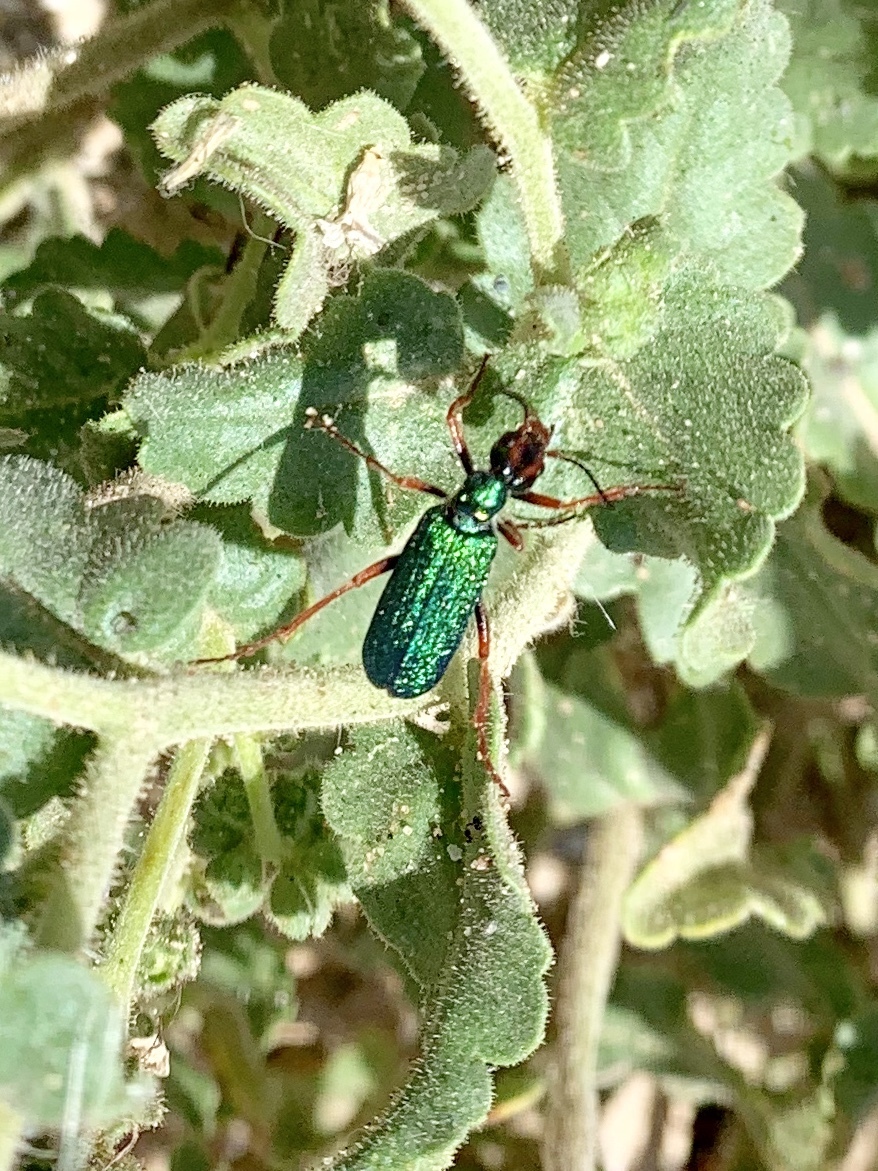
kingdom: Animalia
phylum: Arthropoda
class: Insecta
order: Coleoptera
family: Meloidae
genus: Eupompha
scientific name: Eupompha fissiceps
